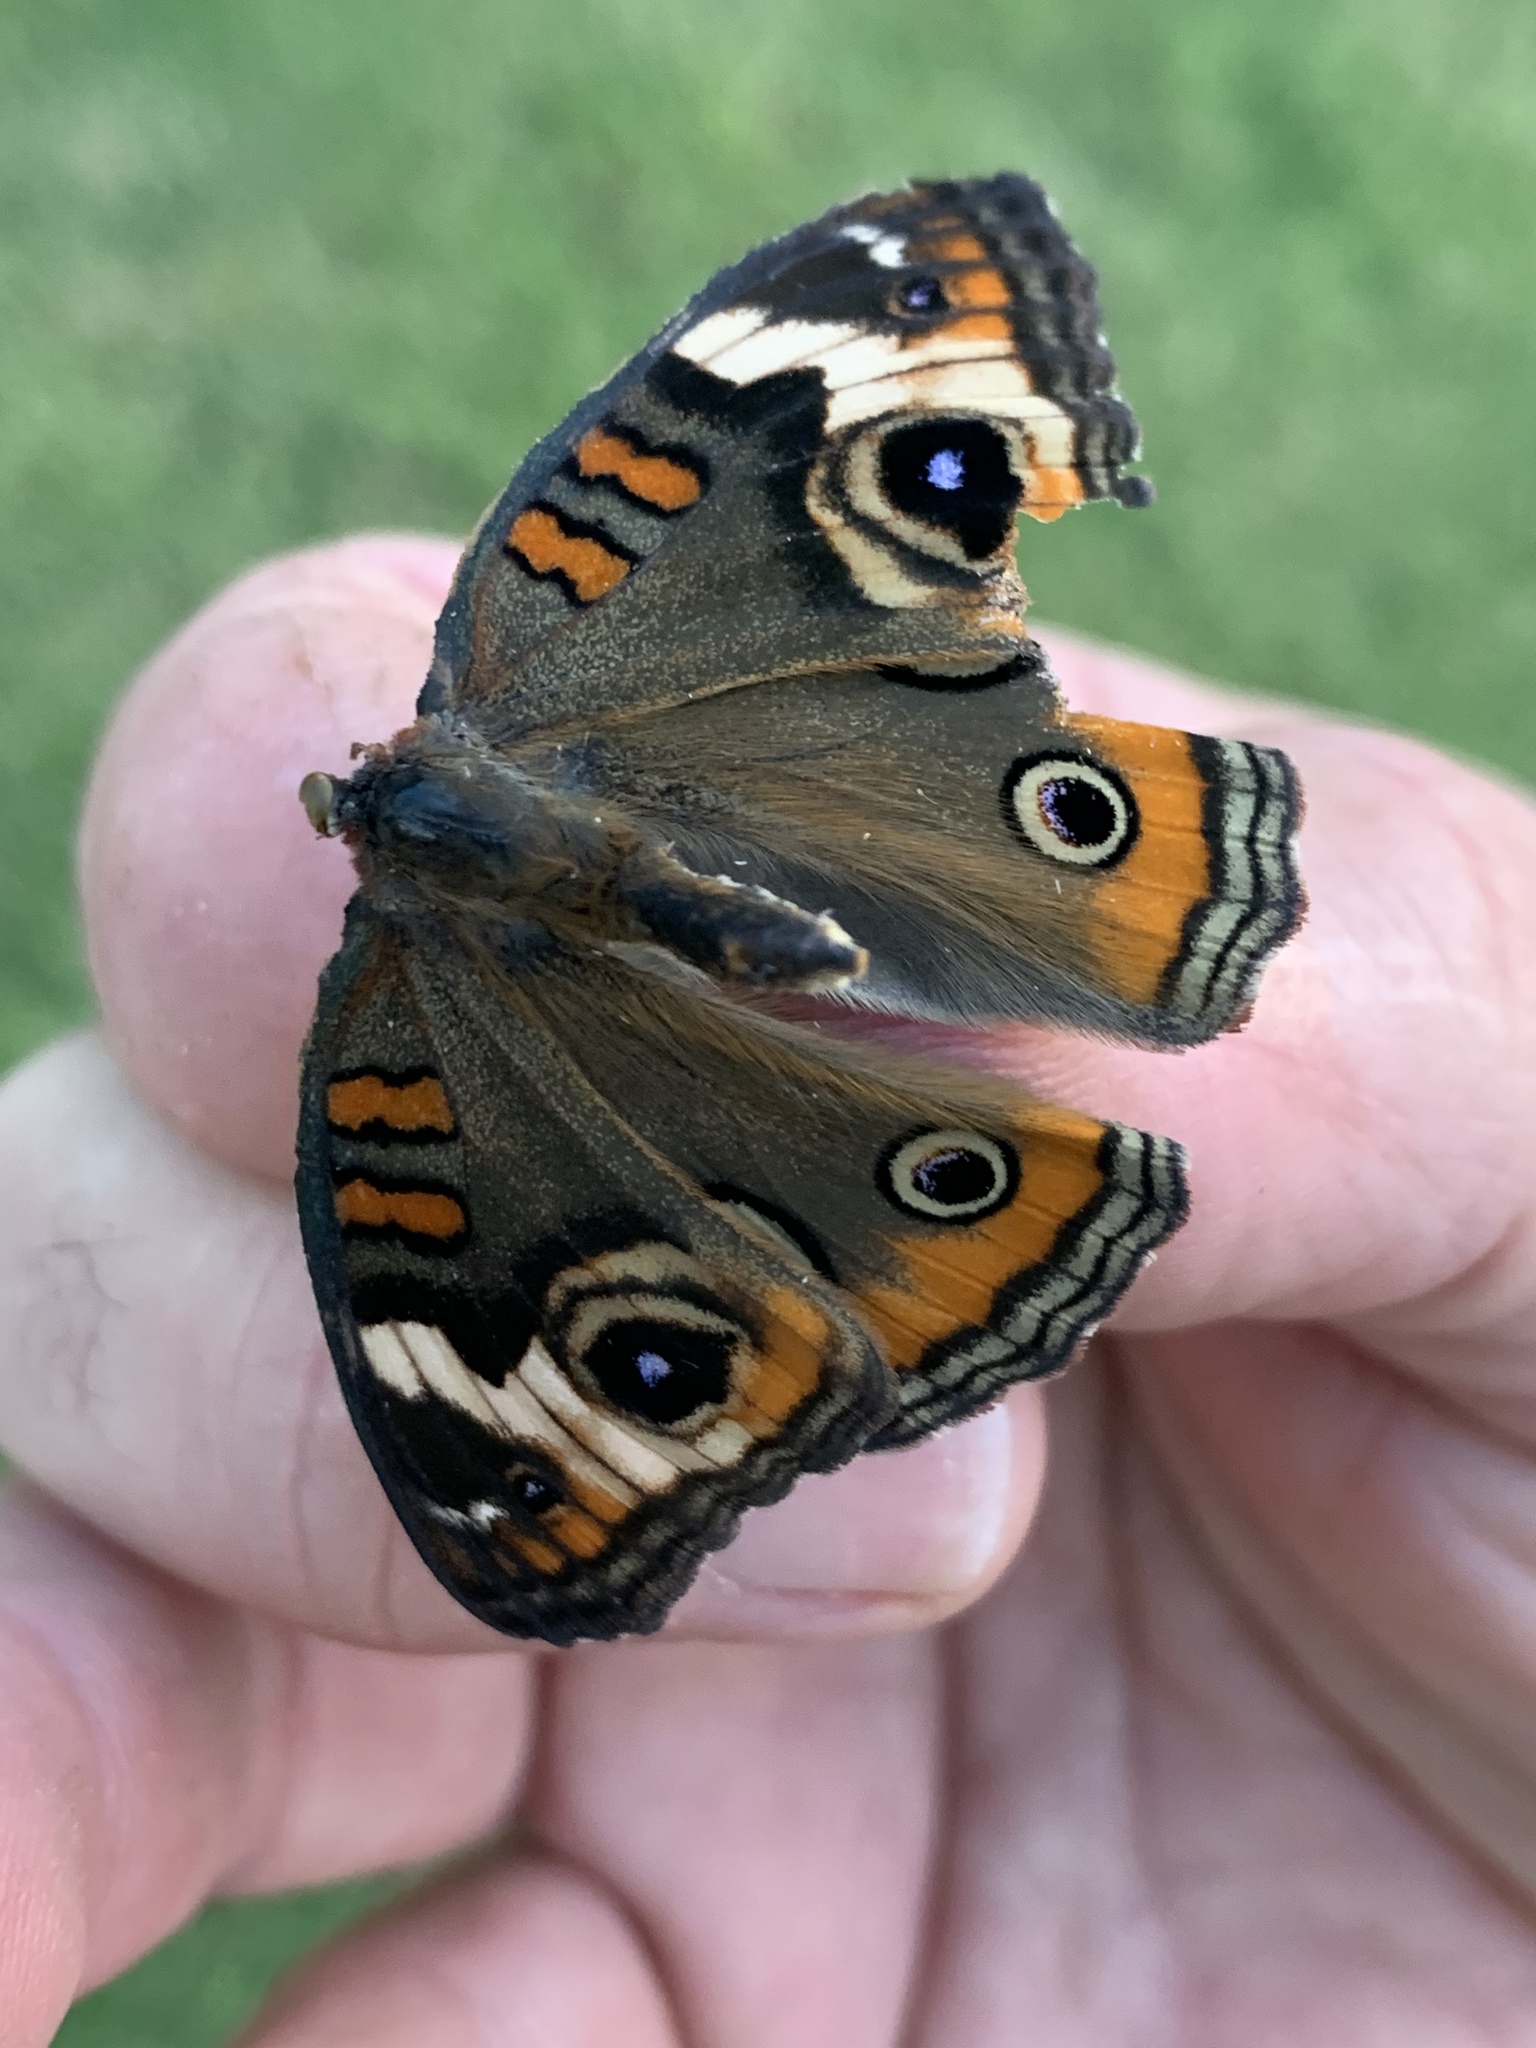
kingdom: Animalia
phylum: Arthropoda
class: Insecta
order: Lepidoptera
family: Nymphalidae
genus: Junonia
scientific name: Junonia coenia
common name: Common buckeye
